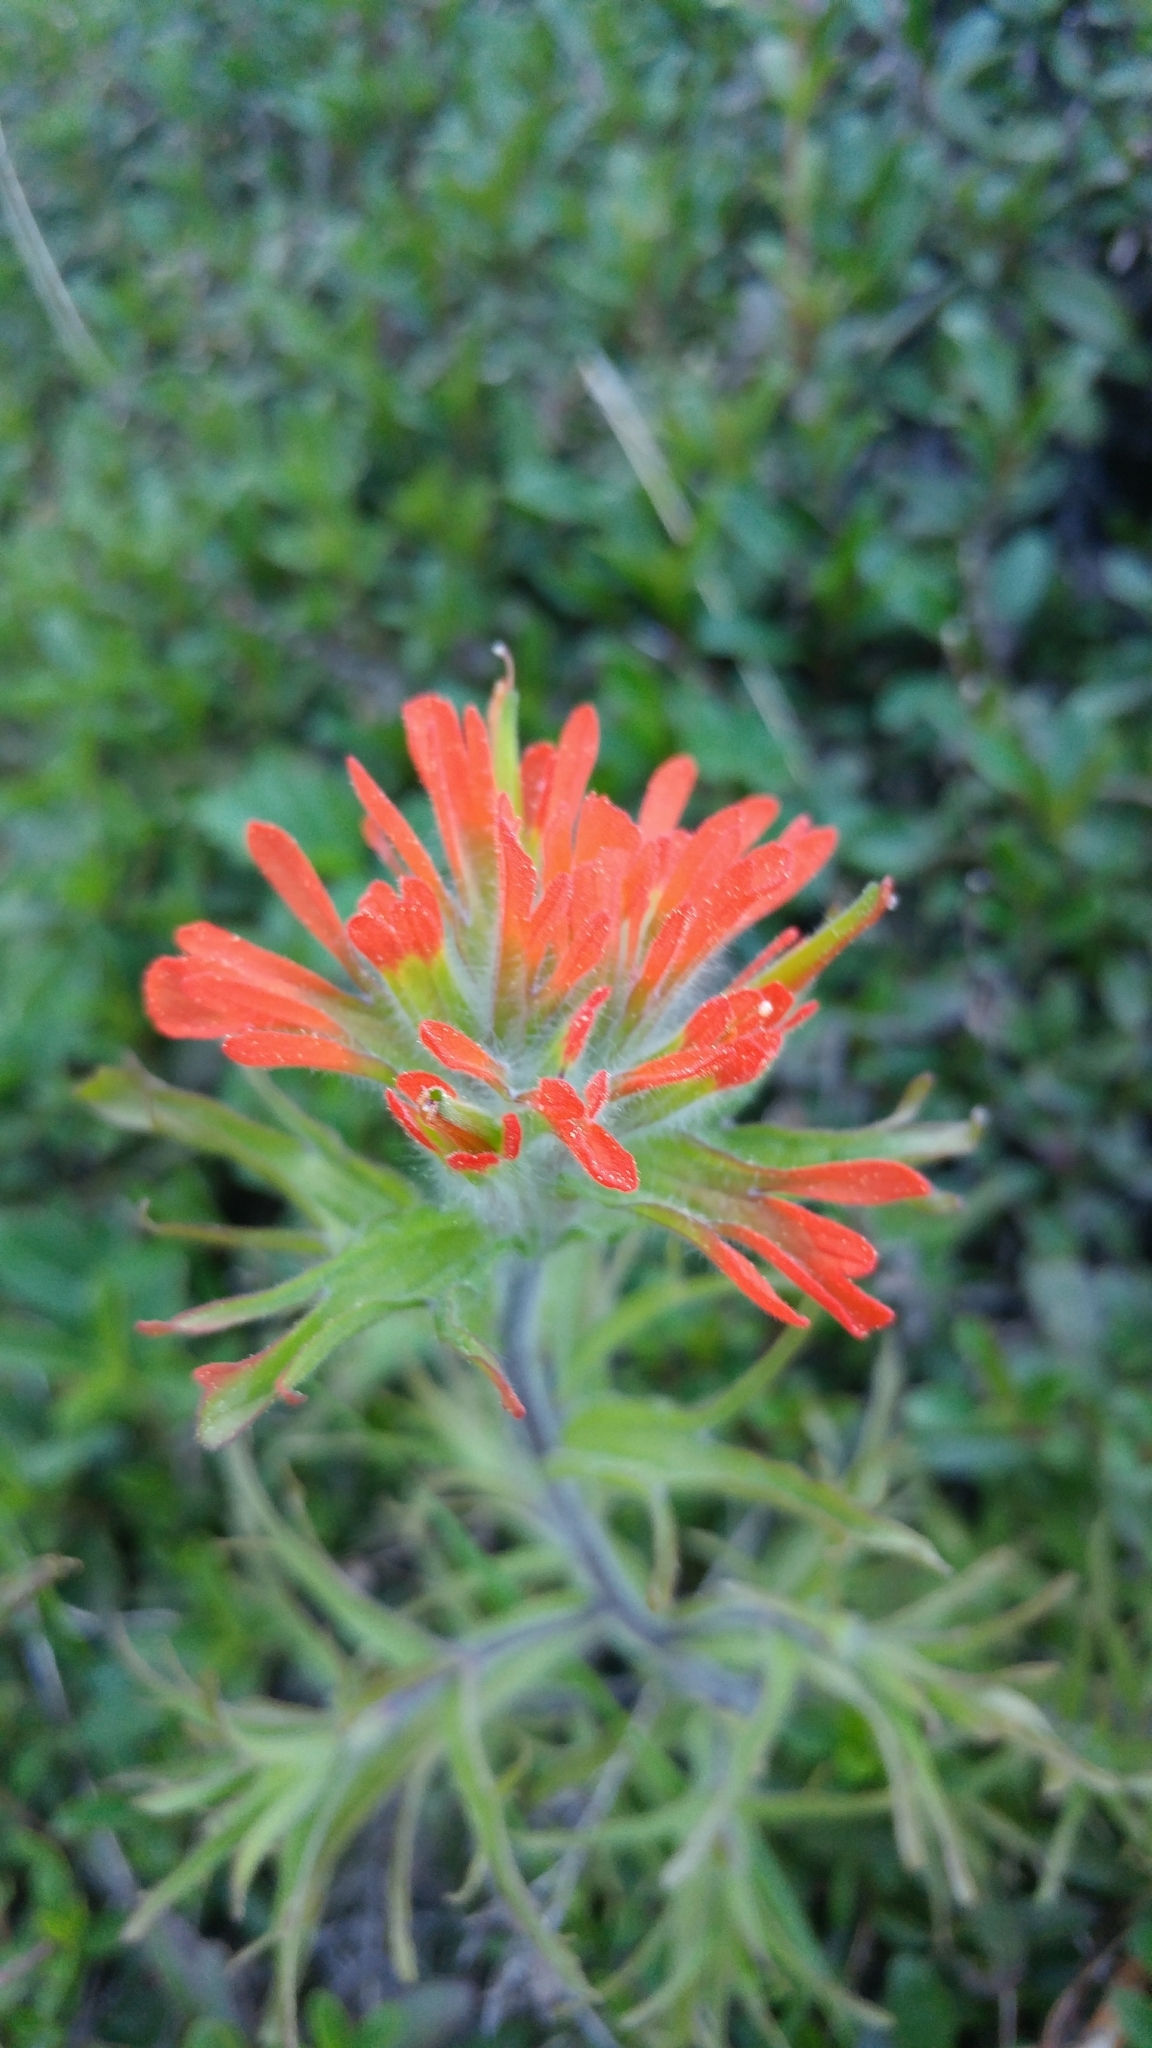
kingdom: Plantae
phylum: Tracheophyta
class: Magnoliopsida
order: Lamiales
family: Orobanchaceae
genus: Castilleja
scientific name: Castilleja hispida
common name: Bristly paintbrush
